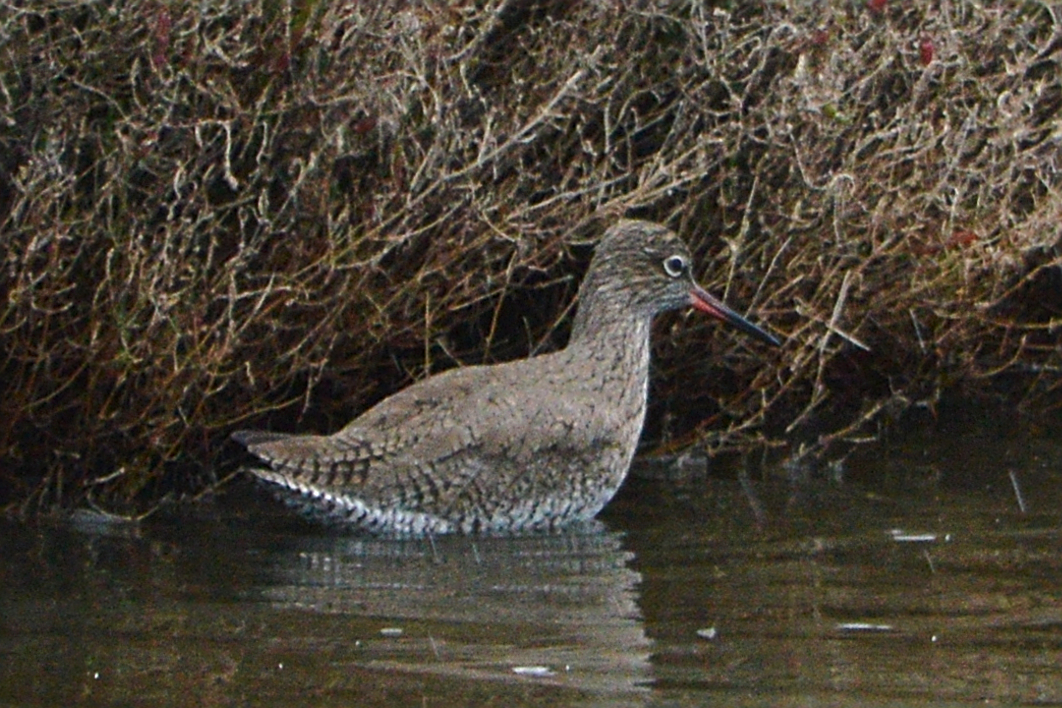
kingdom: Animalia
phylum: Chordata
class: Aves
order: Charadriiformes
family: Scolopacidae
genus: Tringa
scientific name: Tringa totanus
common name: Common redshank
